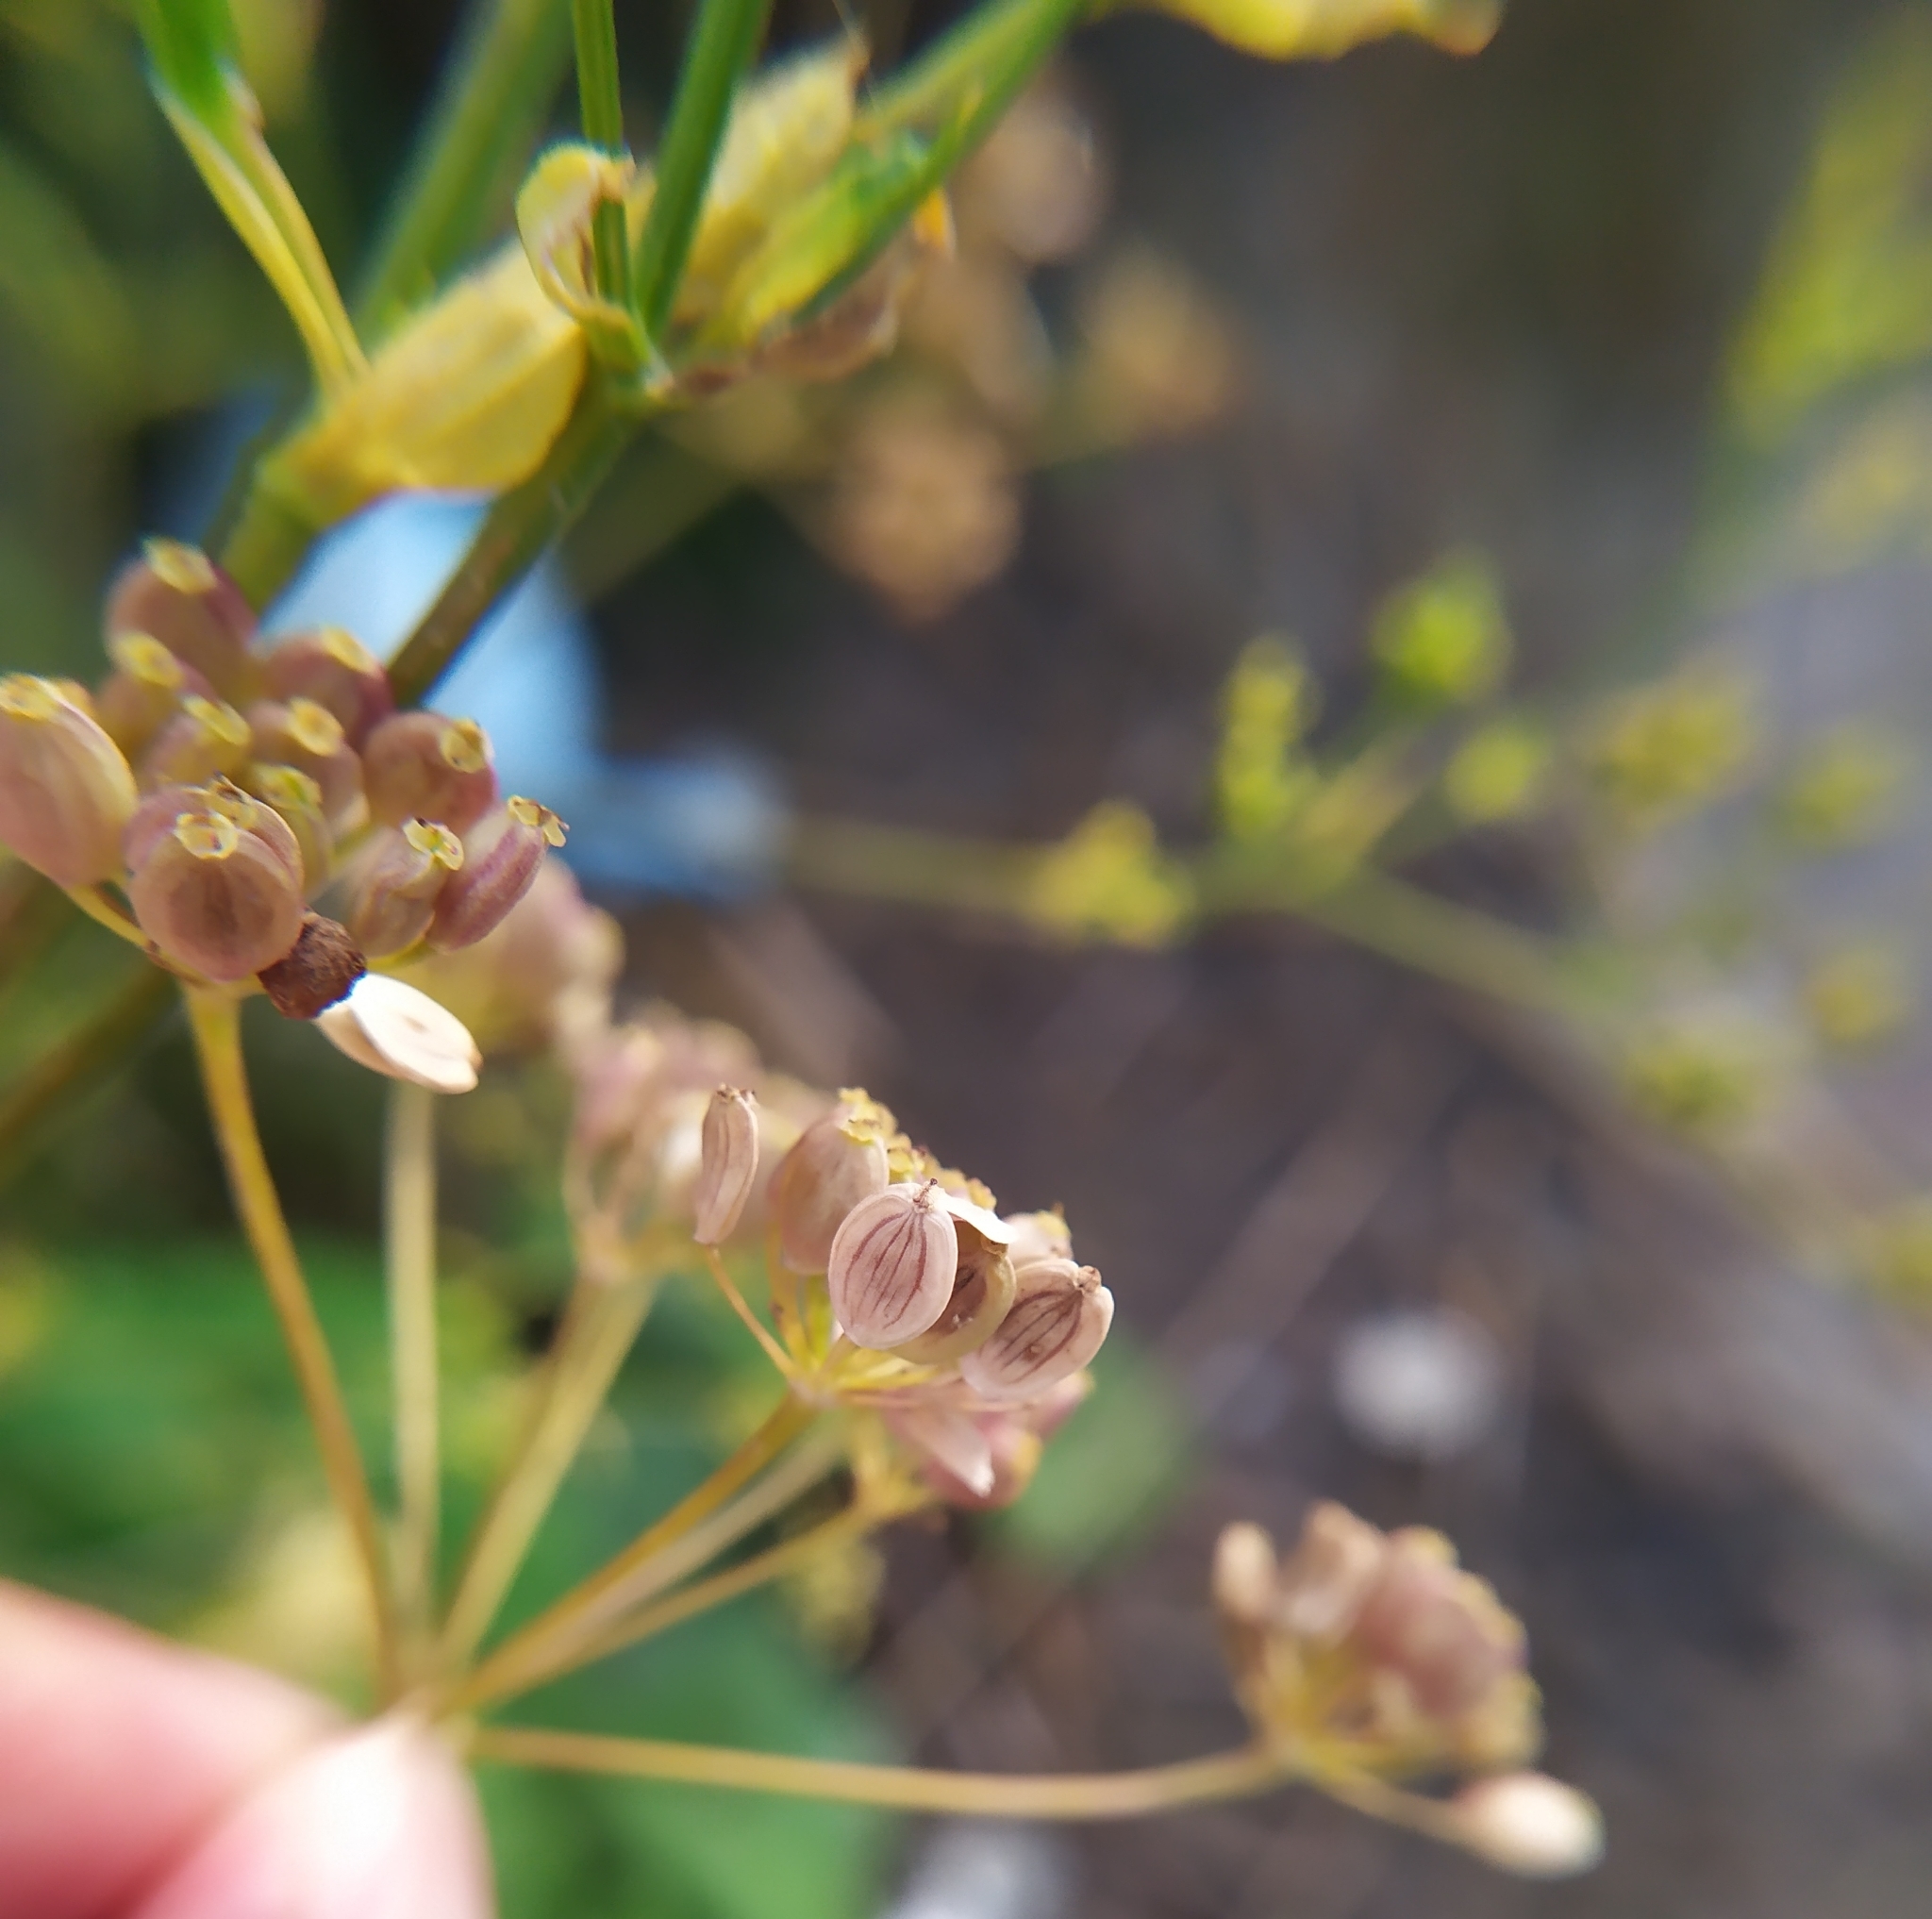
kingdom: Plantae
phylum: Tracheophyta
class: Magnoliopsida
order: Apiales
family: Apiaceae
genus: Pastinaca
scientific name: Pastinaca sativa
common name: Wild parsnip
